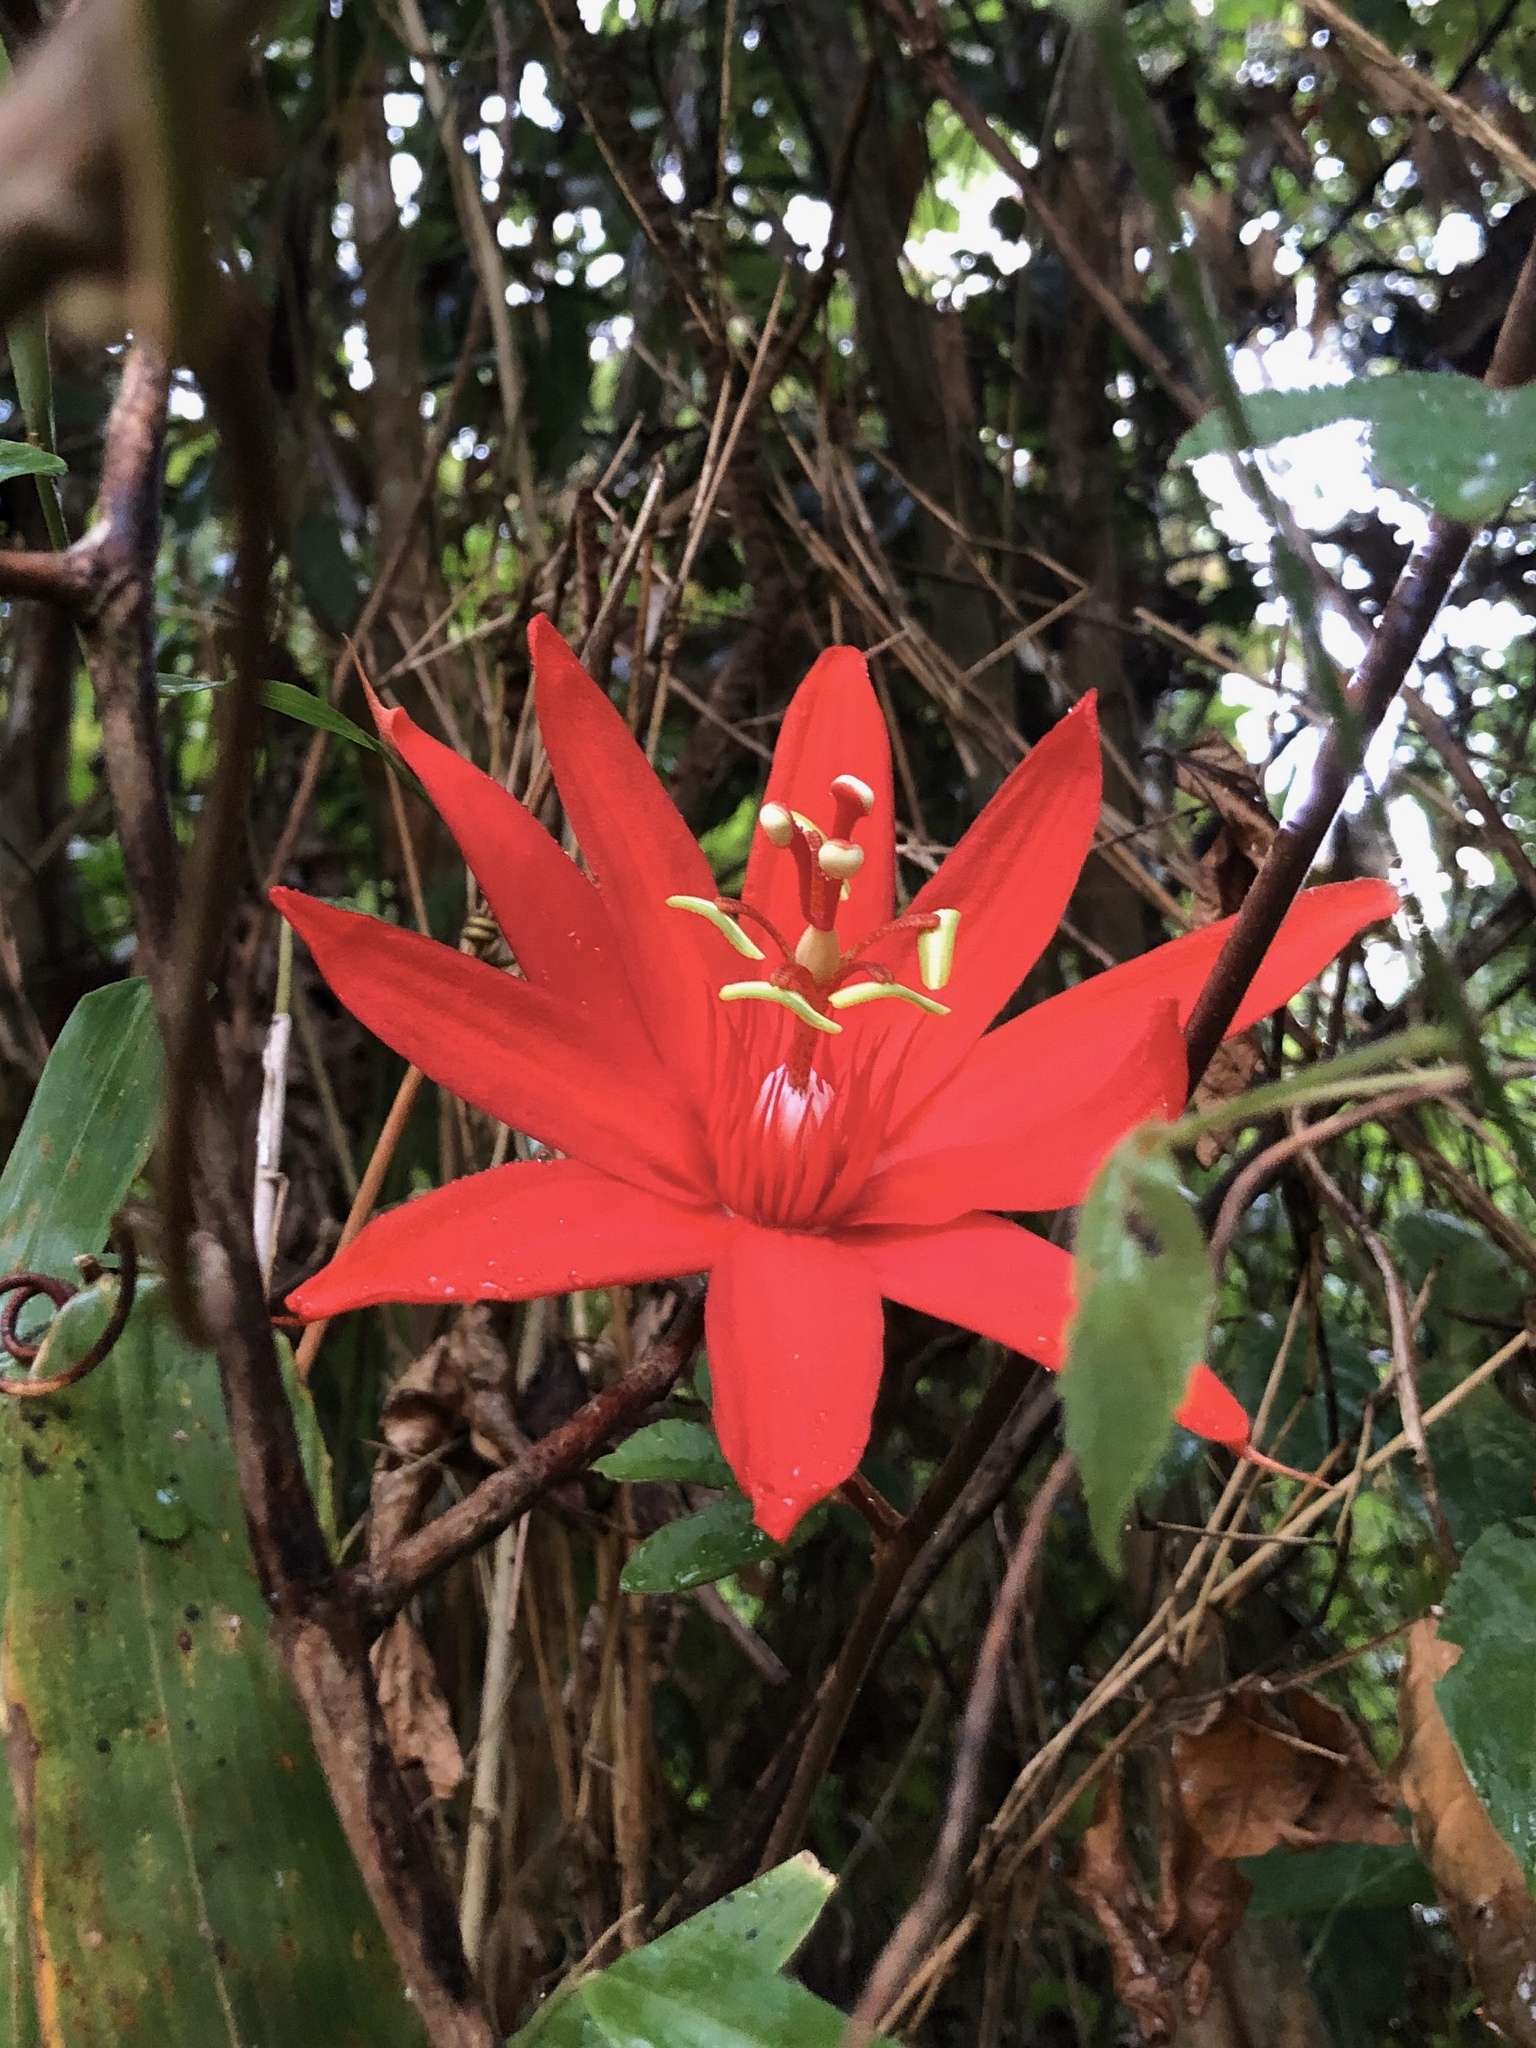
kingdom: Plantae
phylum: Tracheophyta
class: Magnoliopsida
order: Malpighiales
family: Passifloraceae
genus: Passiflora
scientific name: Passiflora vitifolia
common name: Perfumed passionflower
